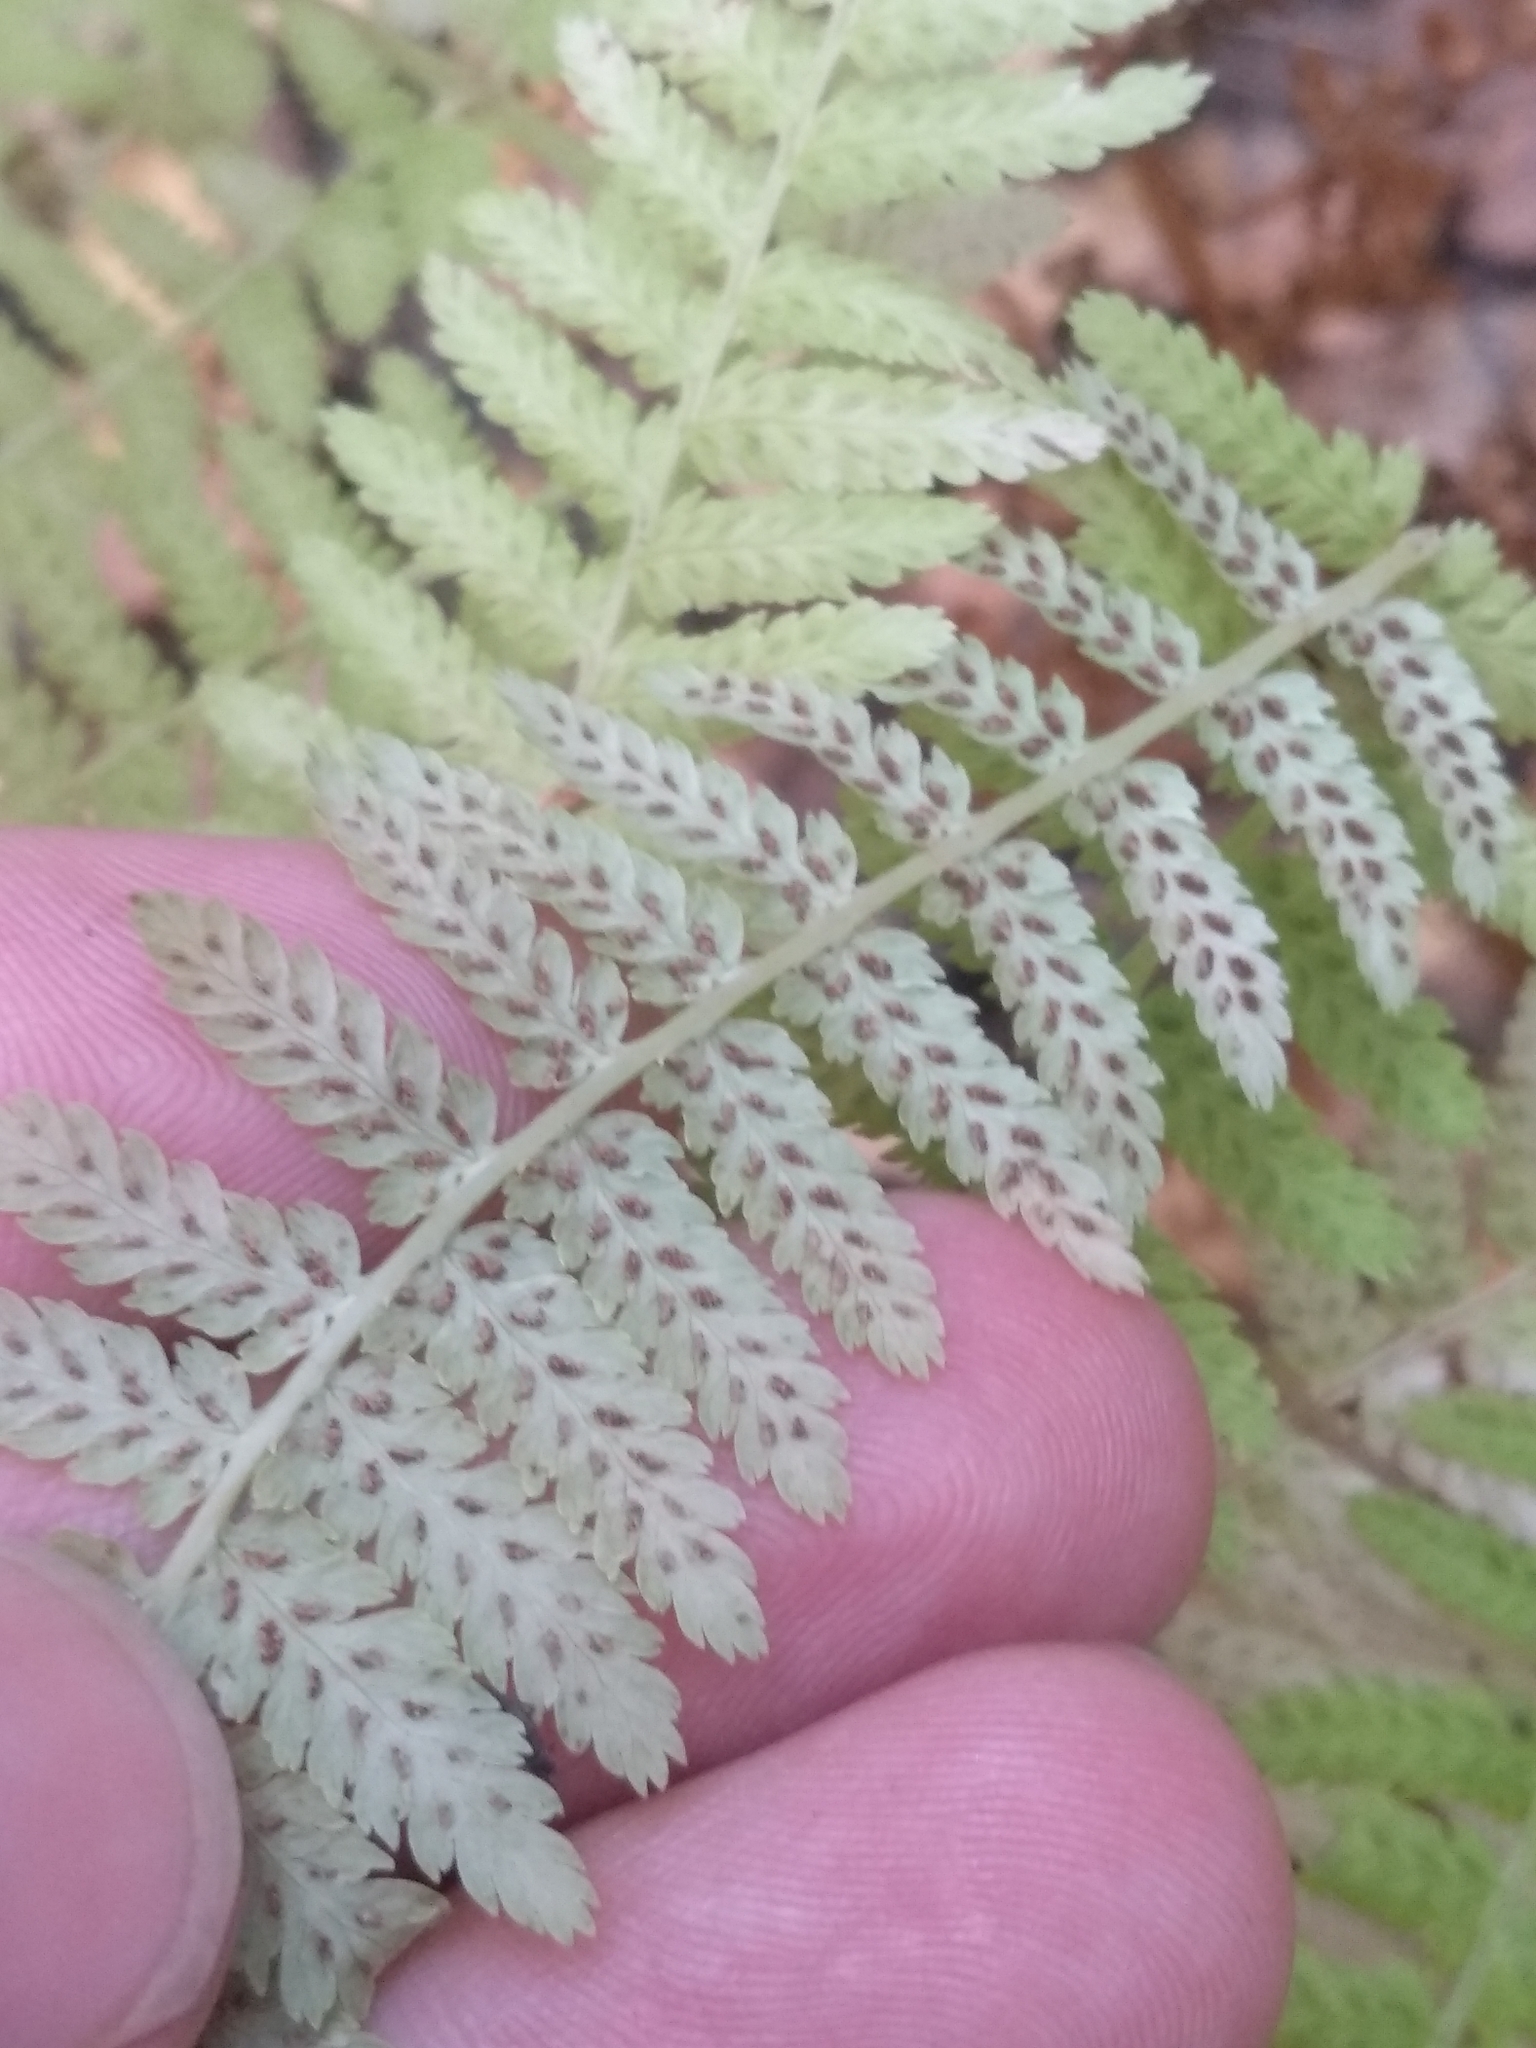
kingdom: Plantae
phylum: Tracheophyta
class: Polypodiopsida
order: Polypodiales
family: Athyriaceae
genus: Athyrium
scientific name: Athyrium filix-femina
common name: Lady fern
